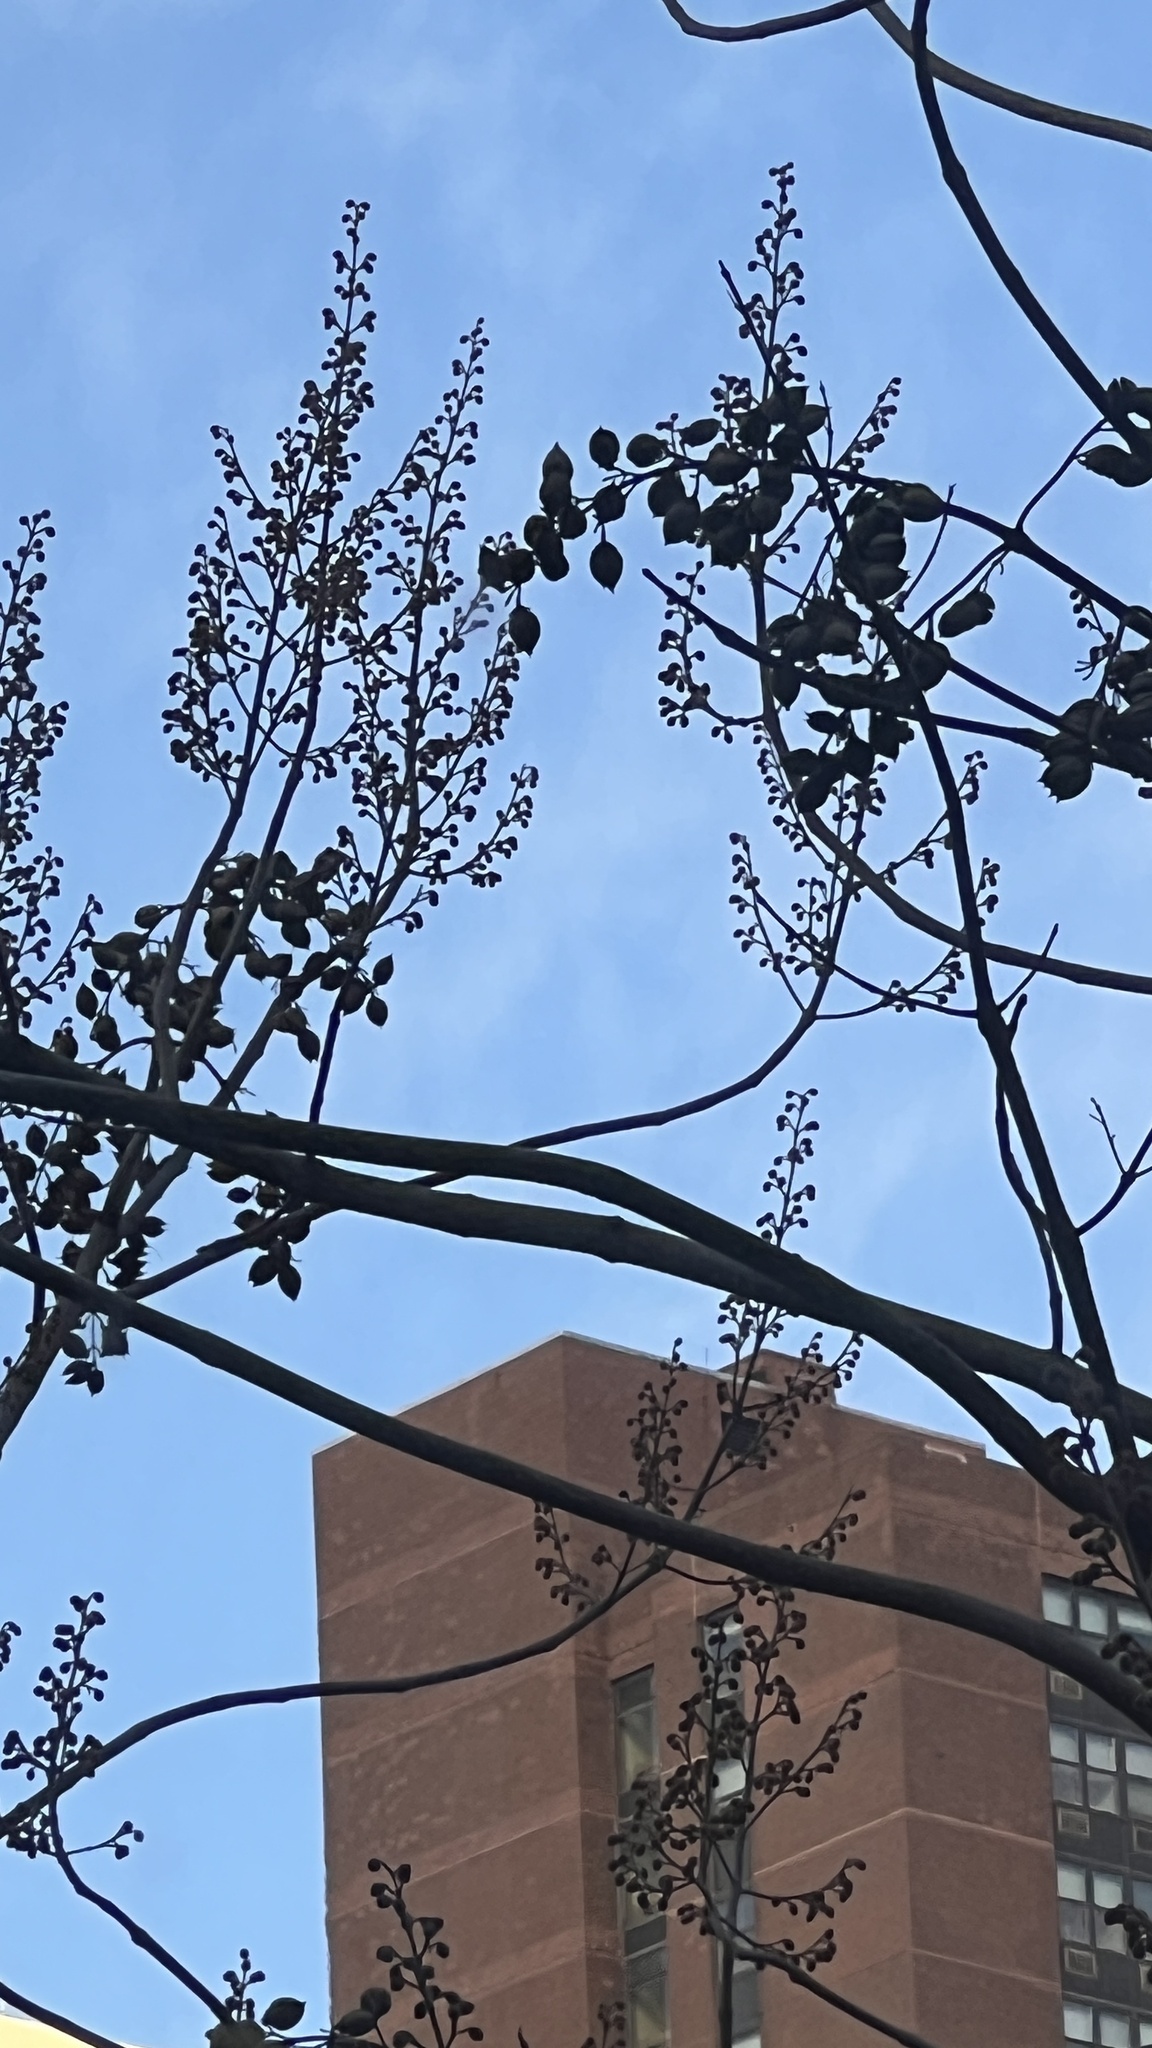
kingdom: Plantae
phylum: Tracheophyta
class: Magnoliopsida
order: Lamiales
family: Paulowniaceae
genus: Paulownia
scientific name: Paulownia tomentosa
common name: Foxglove-tree
